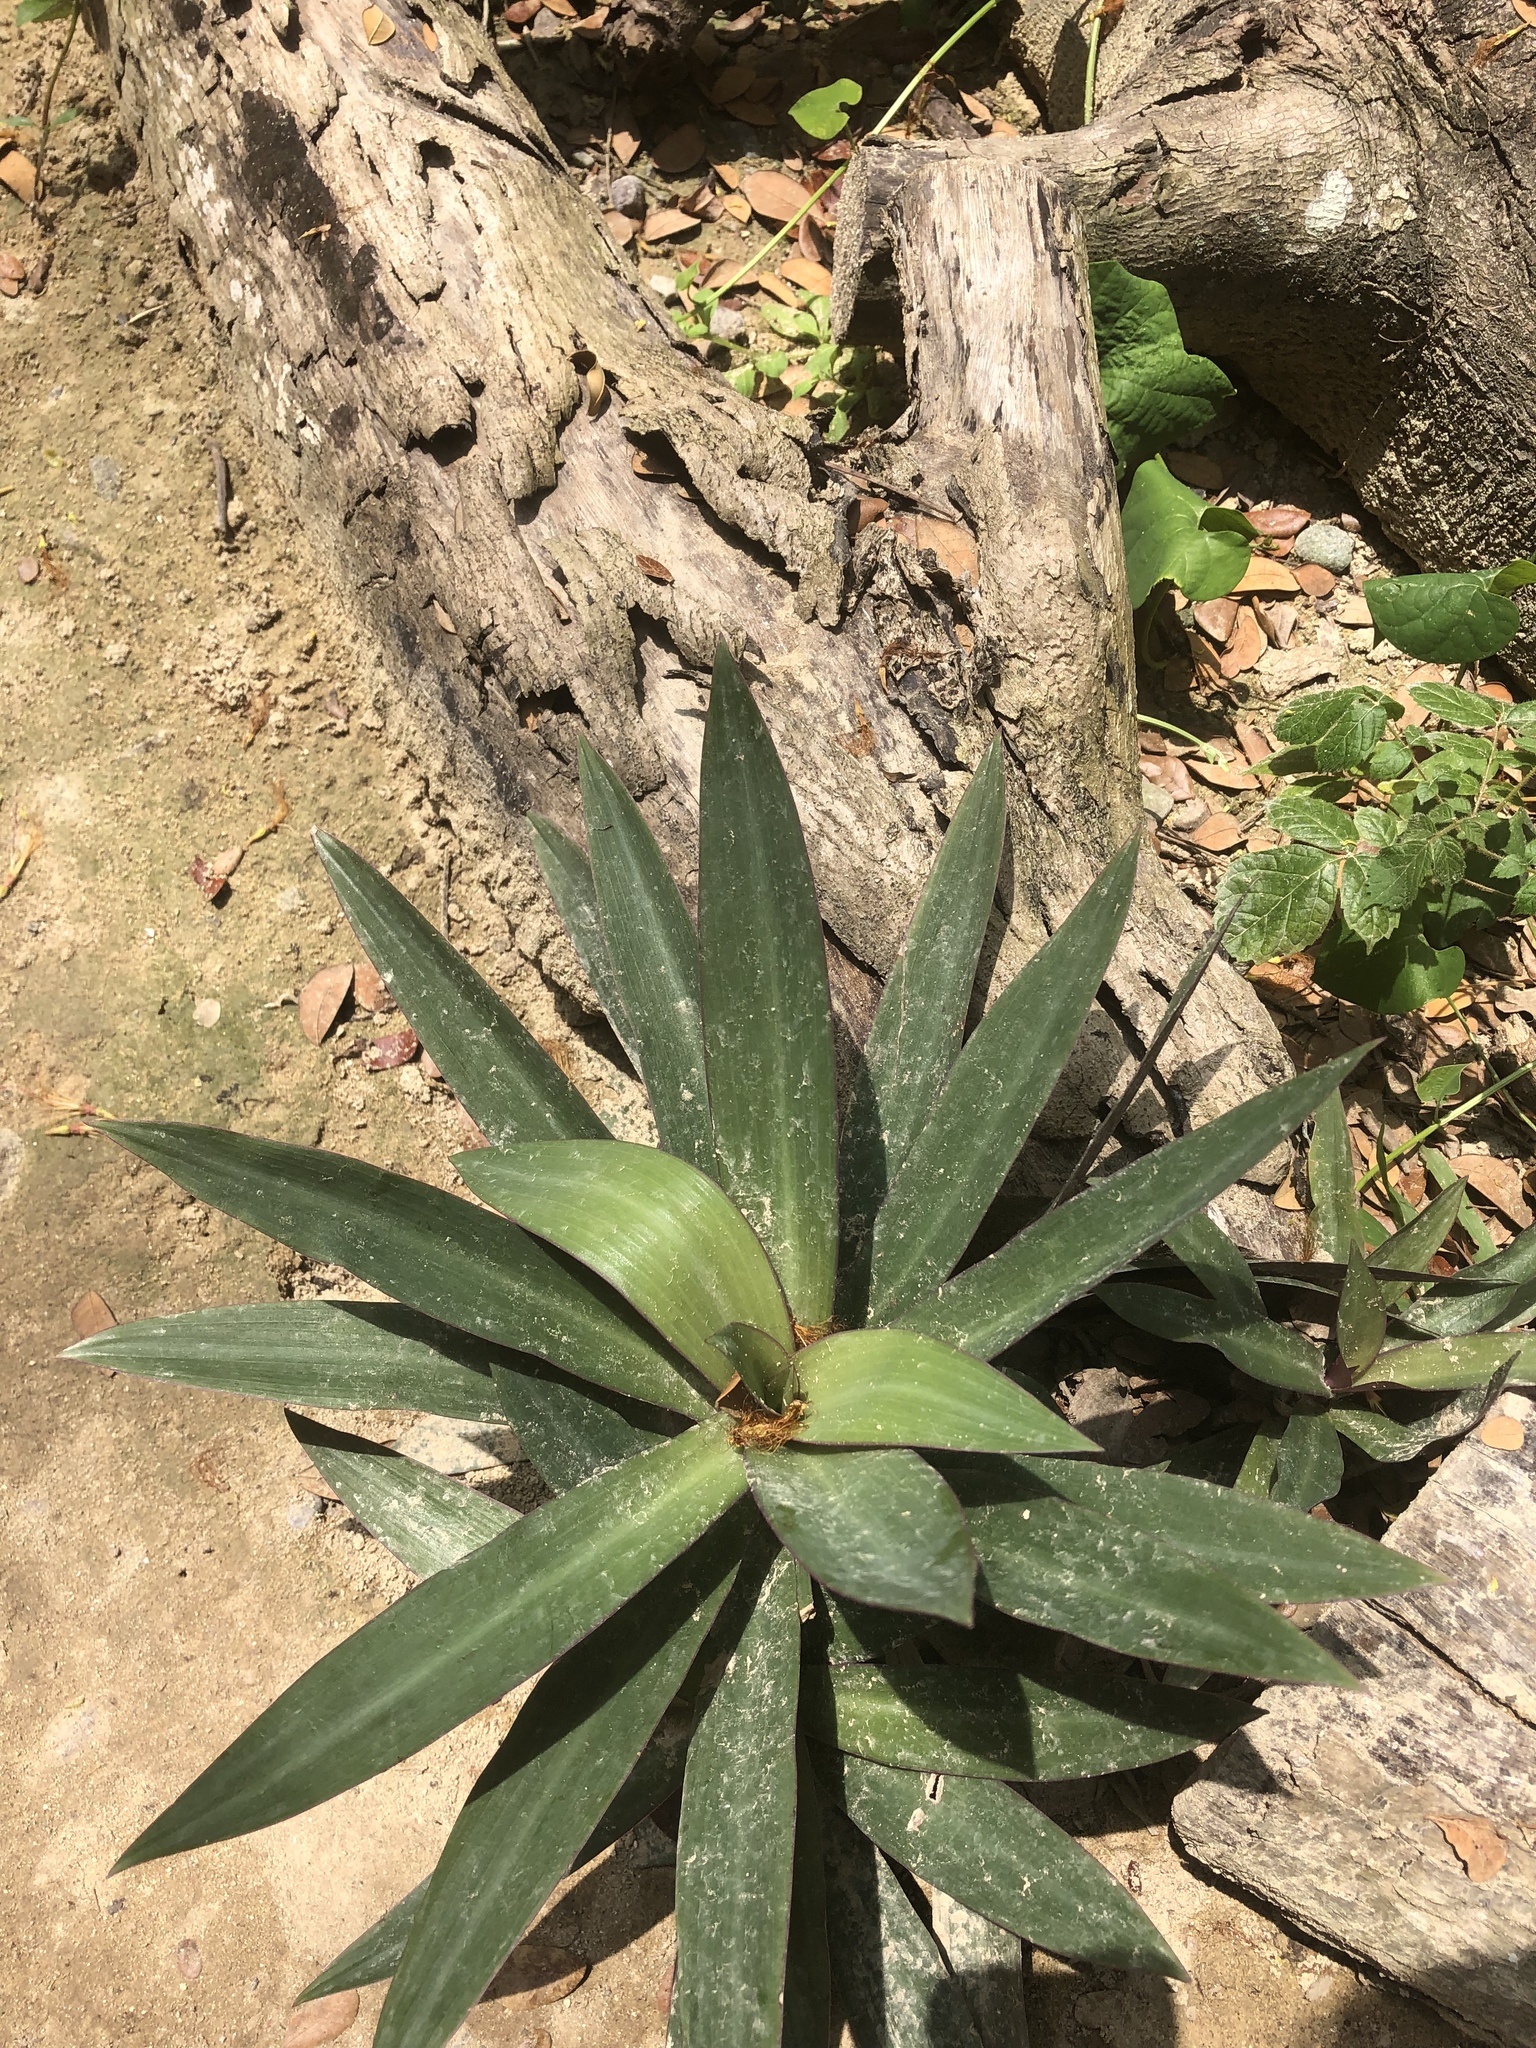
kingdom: Plantae
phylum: Tracheophyta
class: Liliopsida
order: Commelinales
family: Commelinaceae
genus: Tradescantia
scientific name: Tradescantia spathacea
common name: Boatlily
